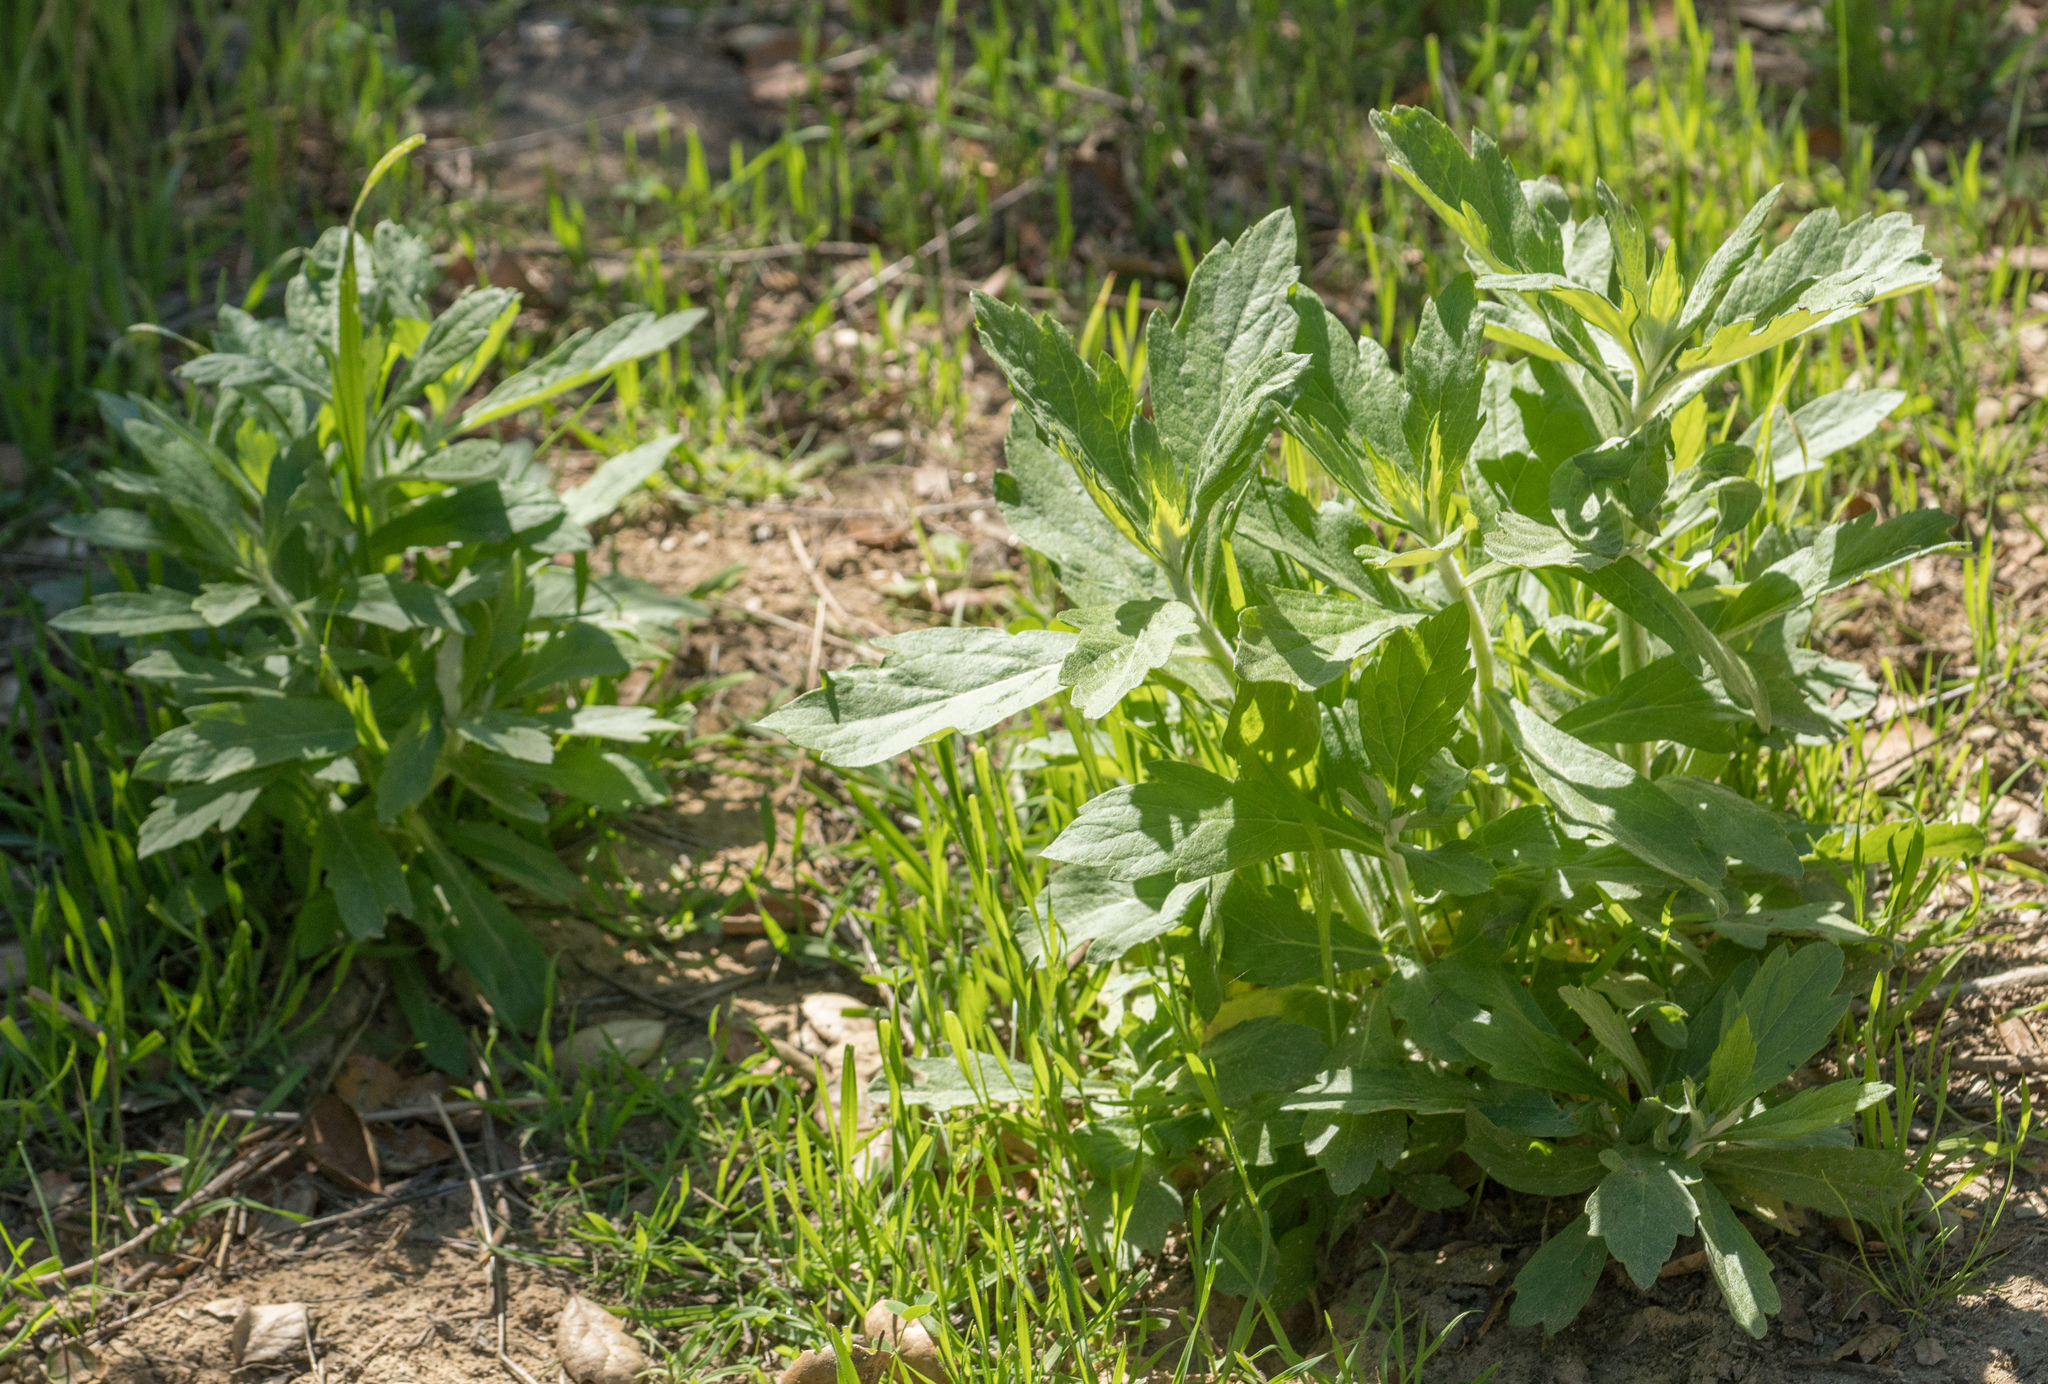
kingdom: Plantae
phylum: Tracheophyta
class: Magnoliopsida
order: Asterales
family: Asteraceae
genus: Artemisia
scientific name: Artemisia douglasiana
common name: Northwest mugwort
